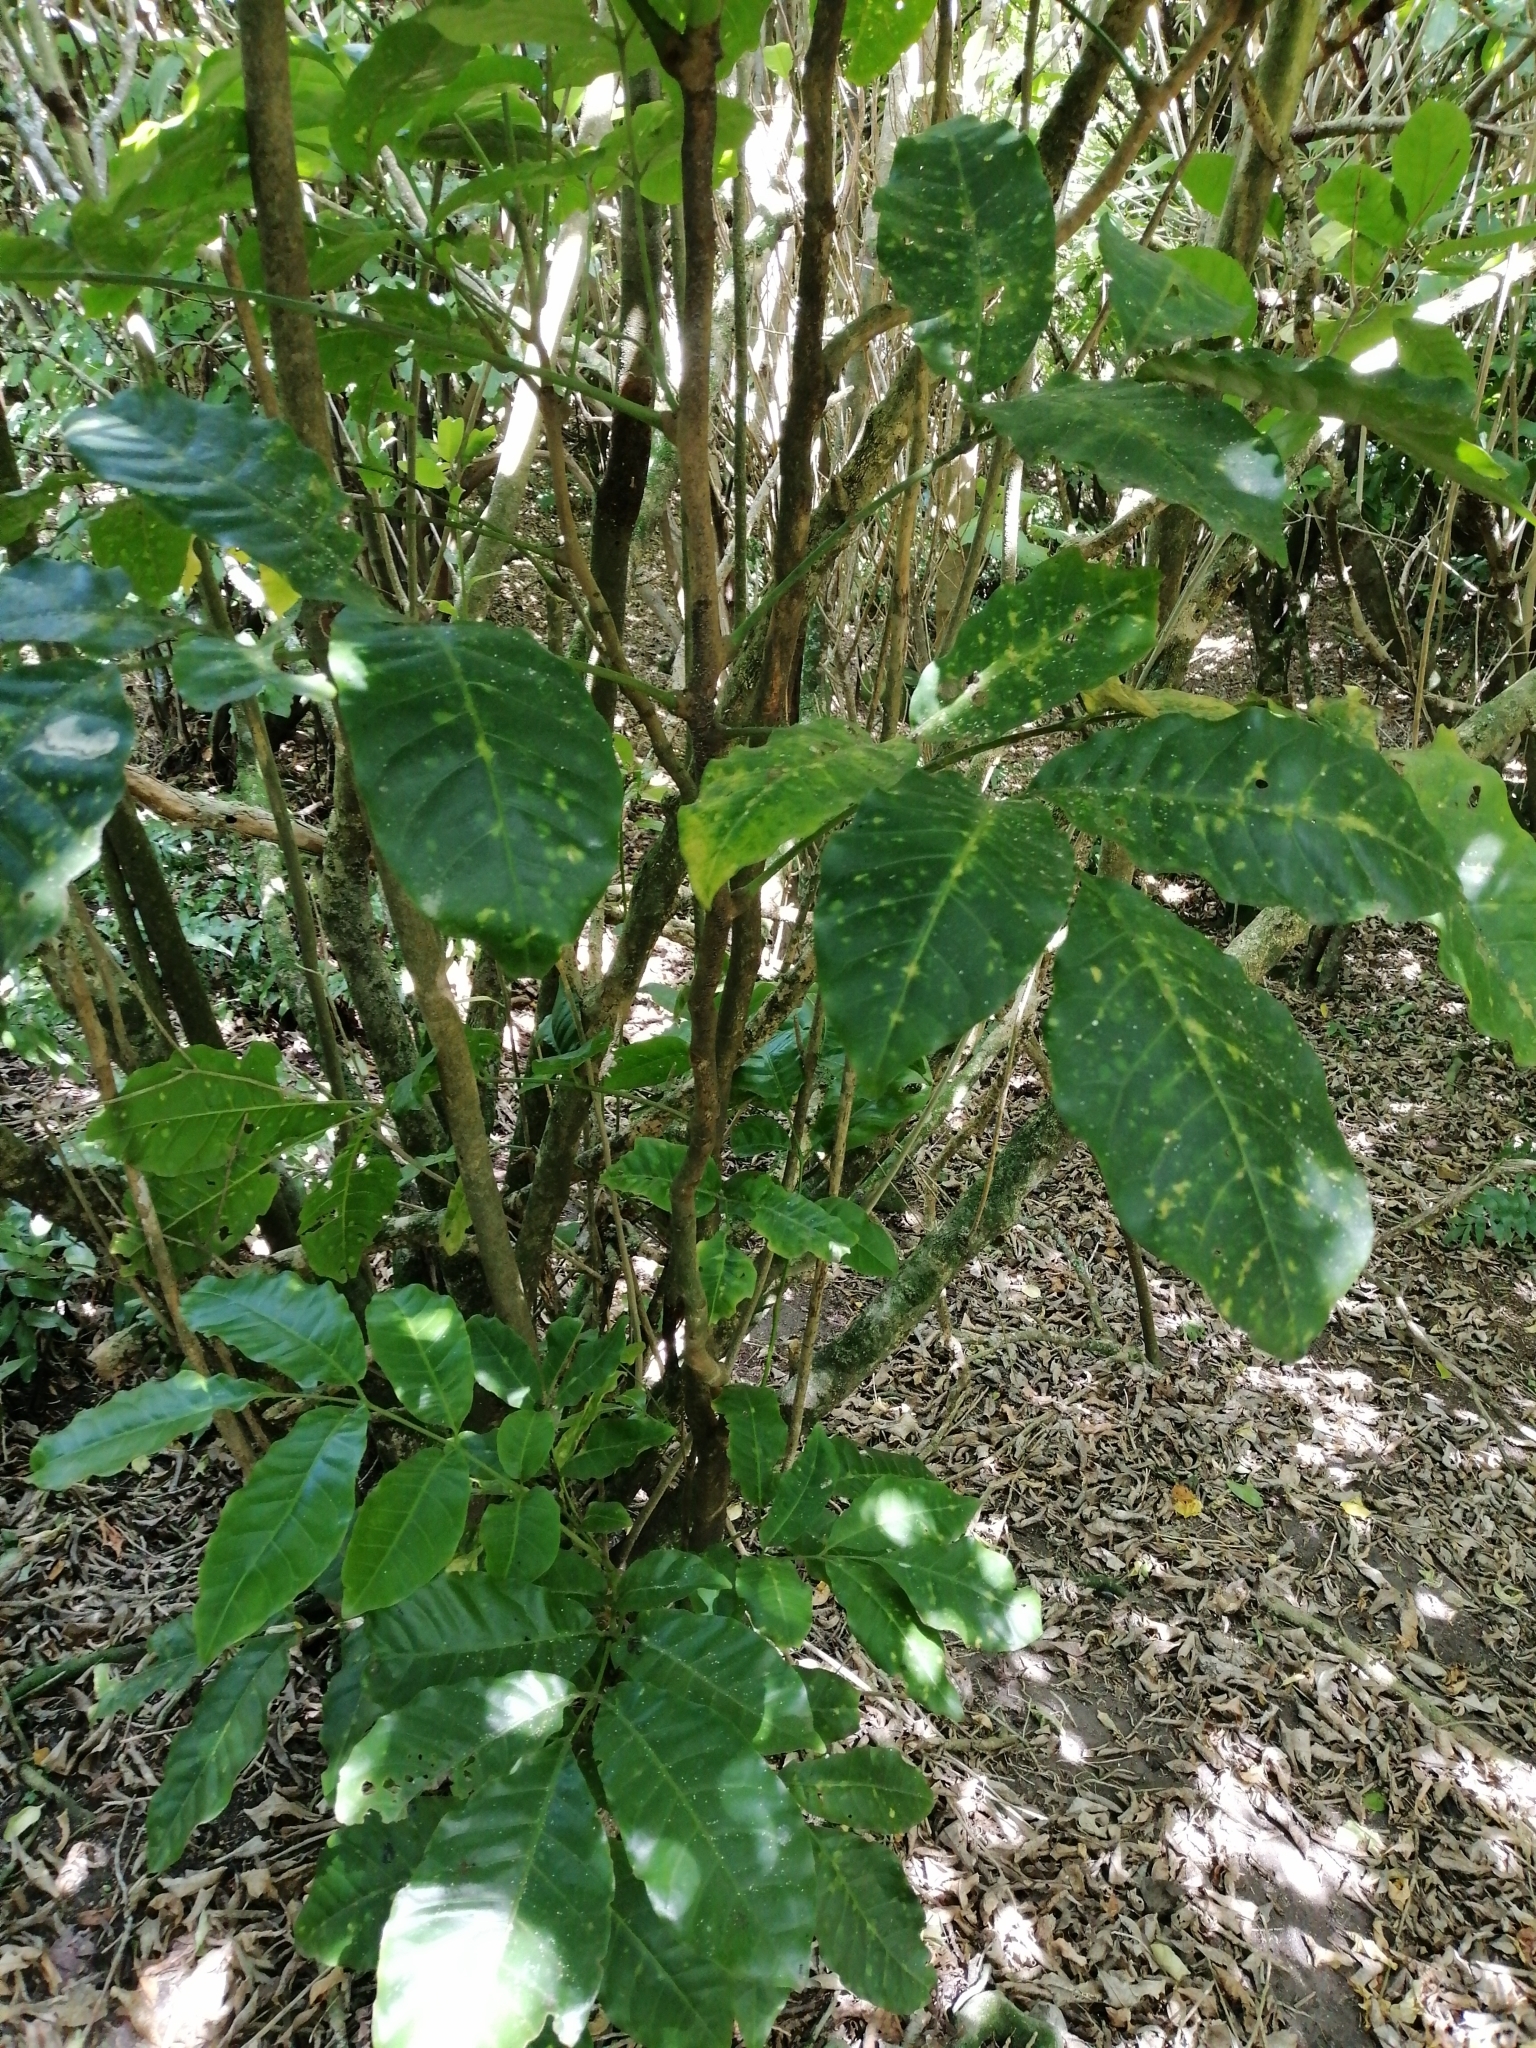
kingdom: Plantae
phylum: Tracheophyta
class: Magnoliopsida
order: Sapindales
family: Meliaceae
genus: Didymocheton
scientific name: Didymocheton spectabilis
